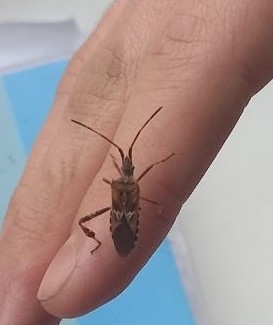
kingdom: Animalia
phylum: Arthropoda
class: Insecta
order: Hemiptera
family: Coreidae
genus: Leptoglossus
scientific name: Leptoglossus occidentalis
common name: Western conifer-seed bug
